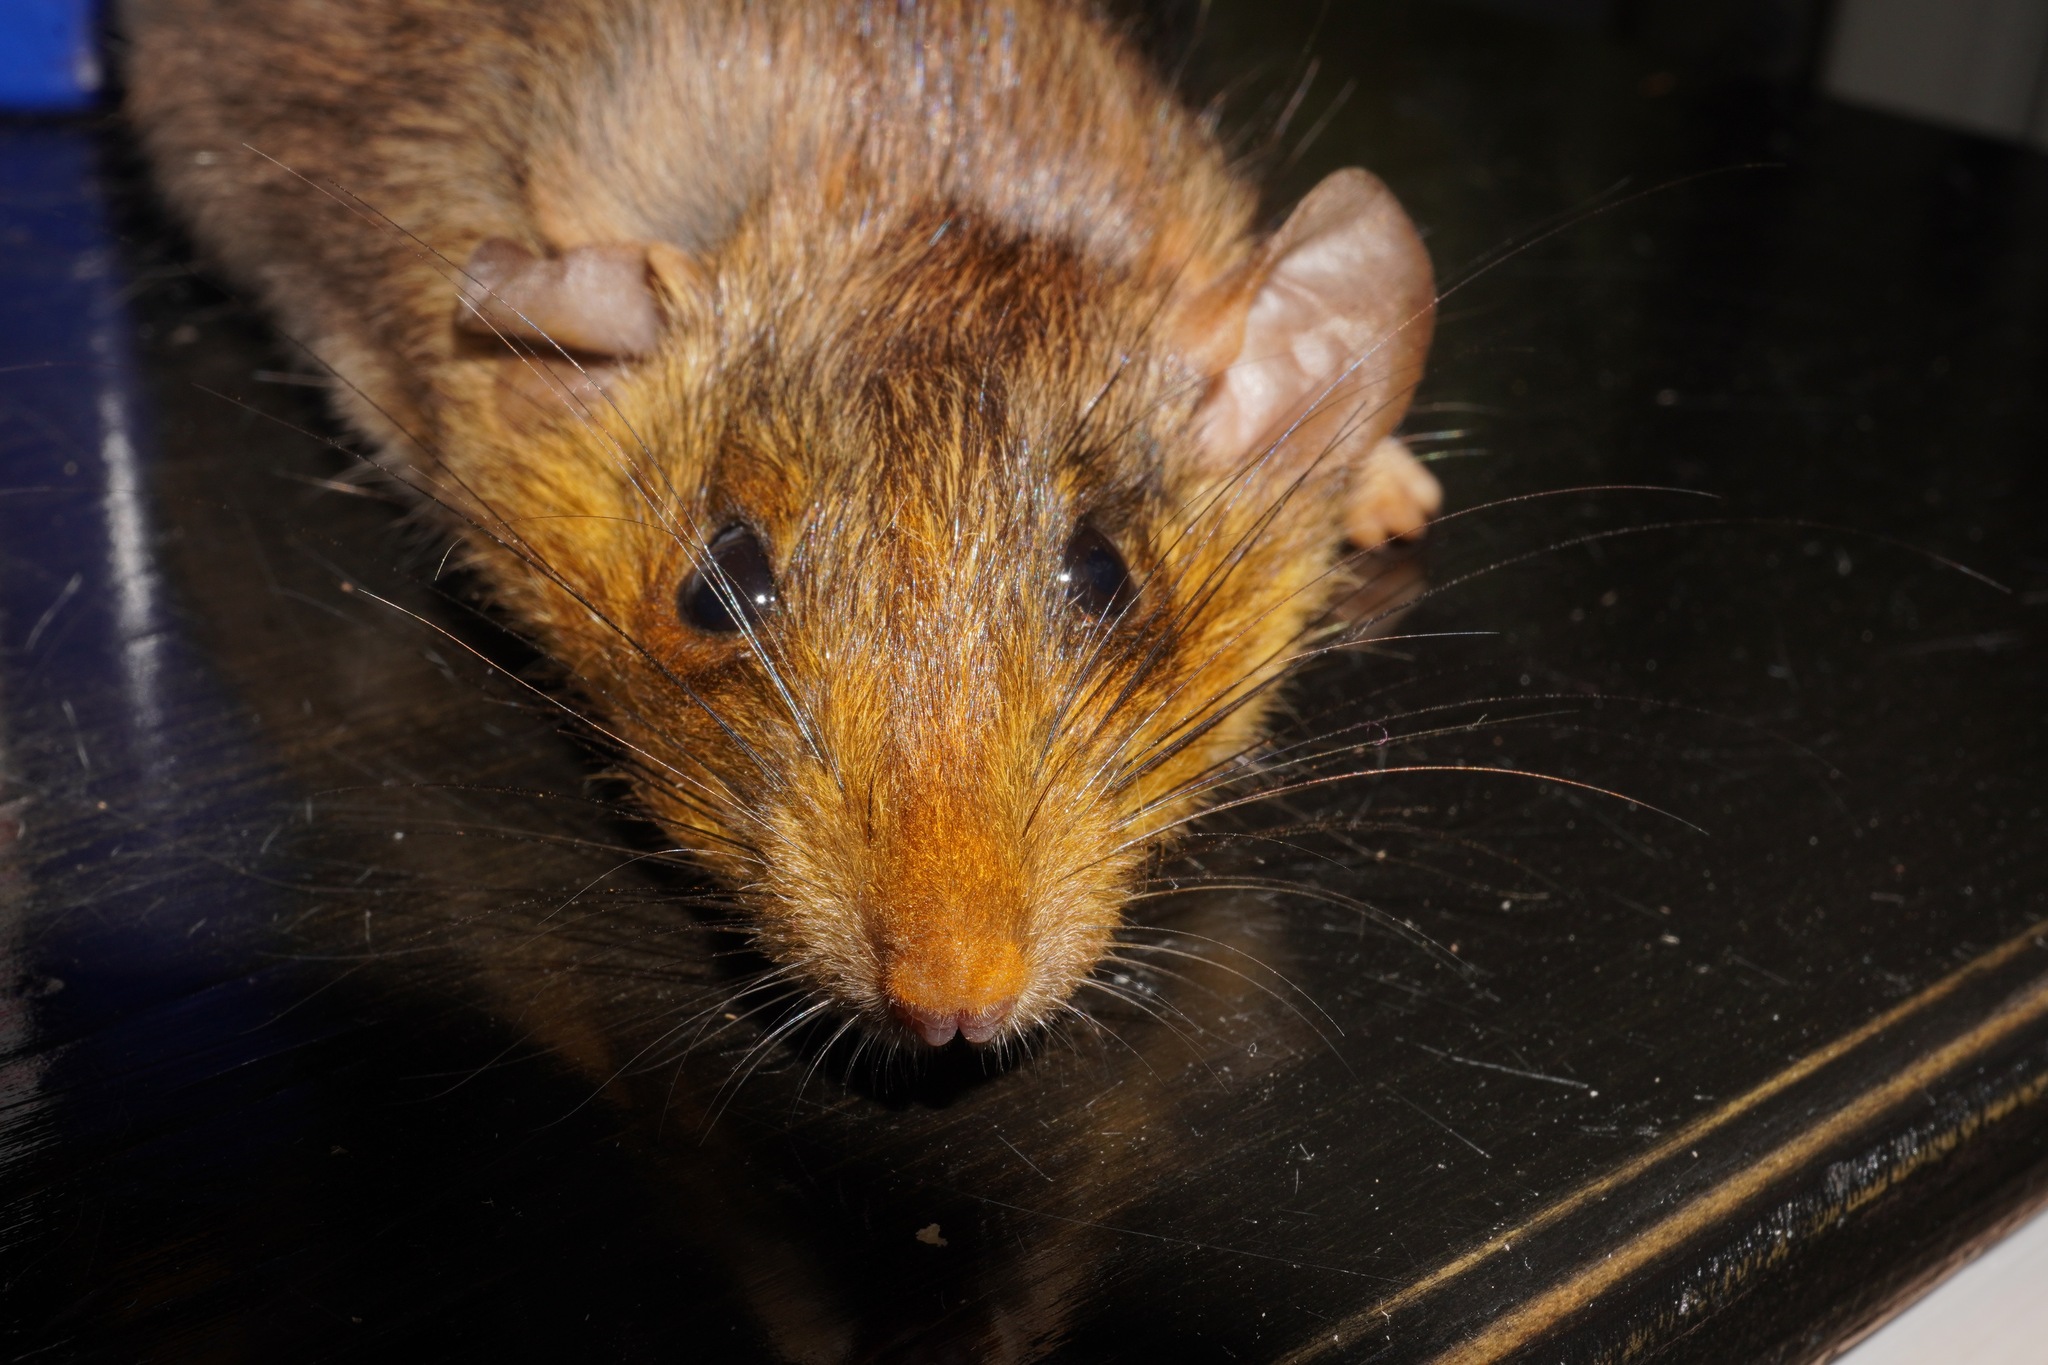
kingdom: Plantae
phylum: Tracheophyta
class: Liliopsida
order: Asparagales
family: Asphodelaceae
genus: Phormium
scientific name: Phormium tenax
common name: New zealand flax
